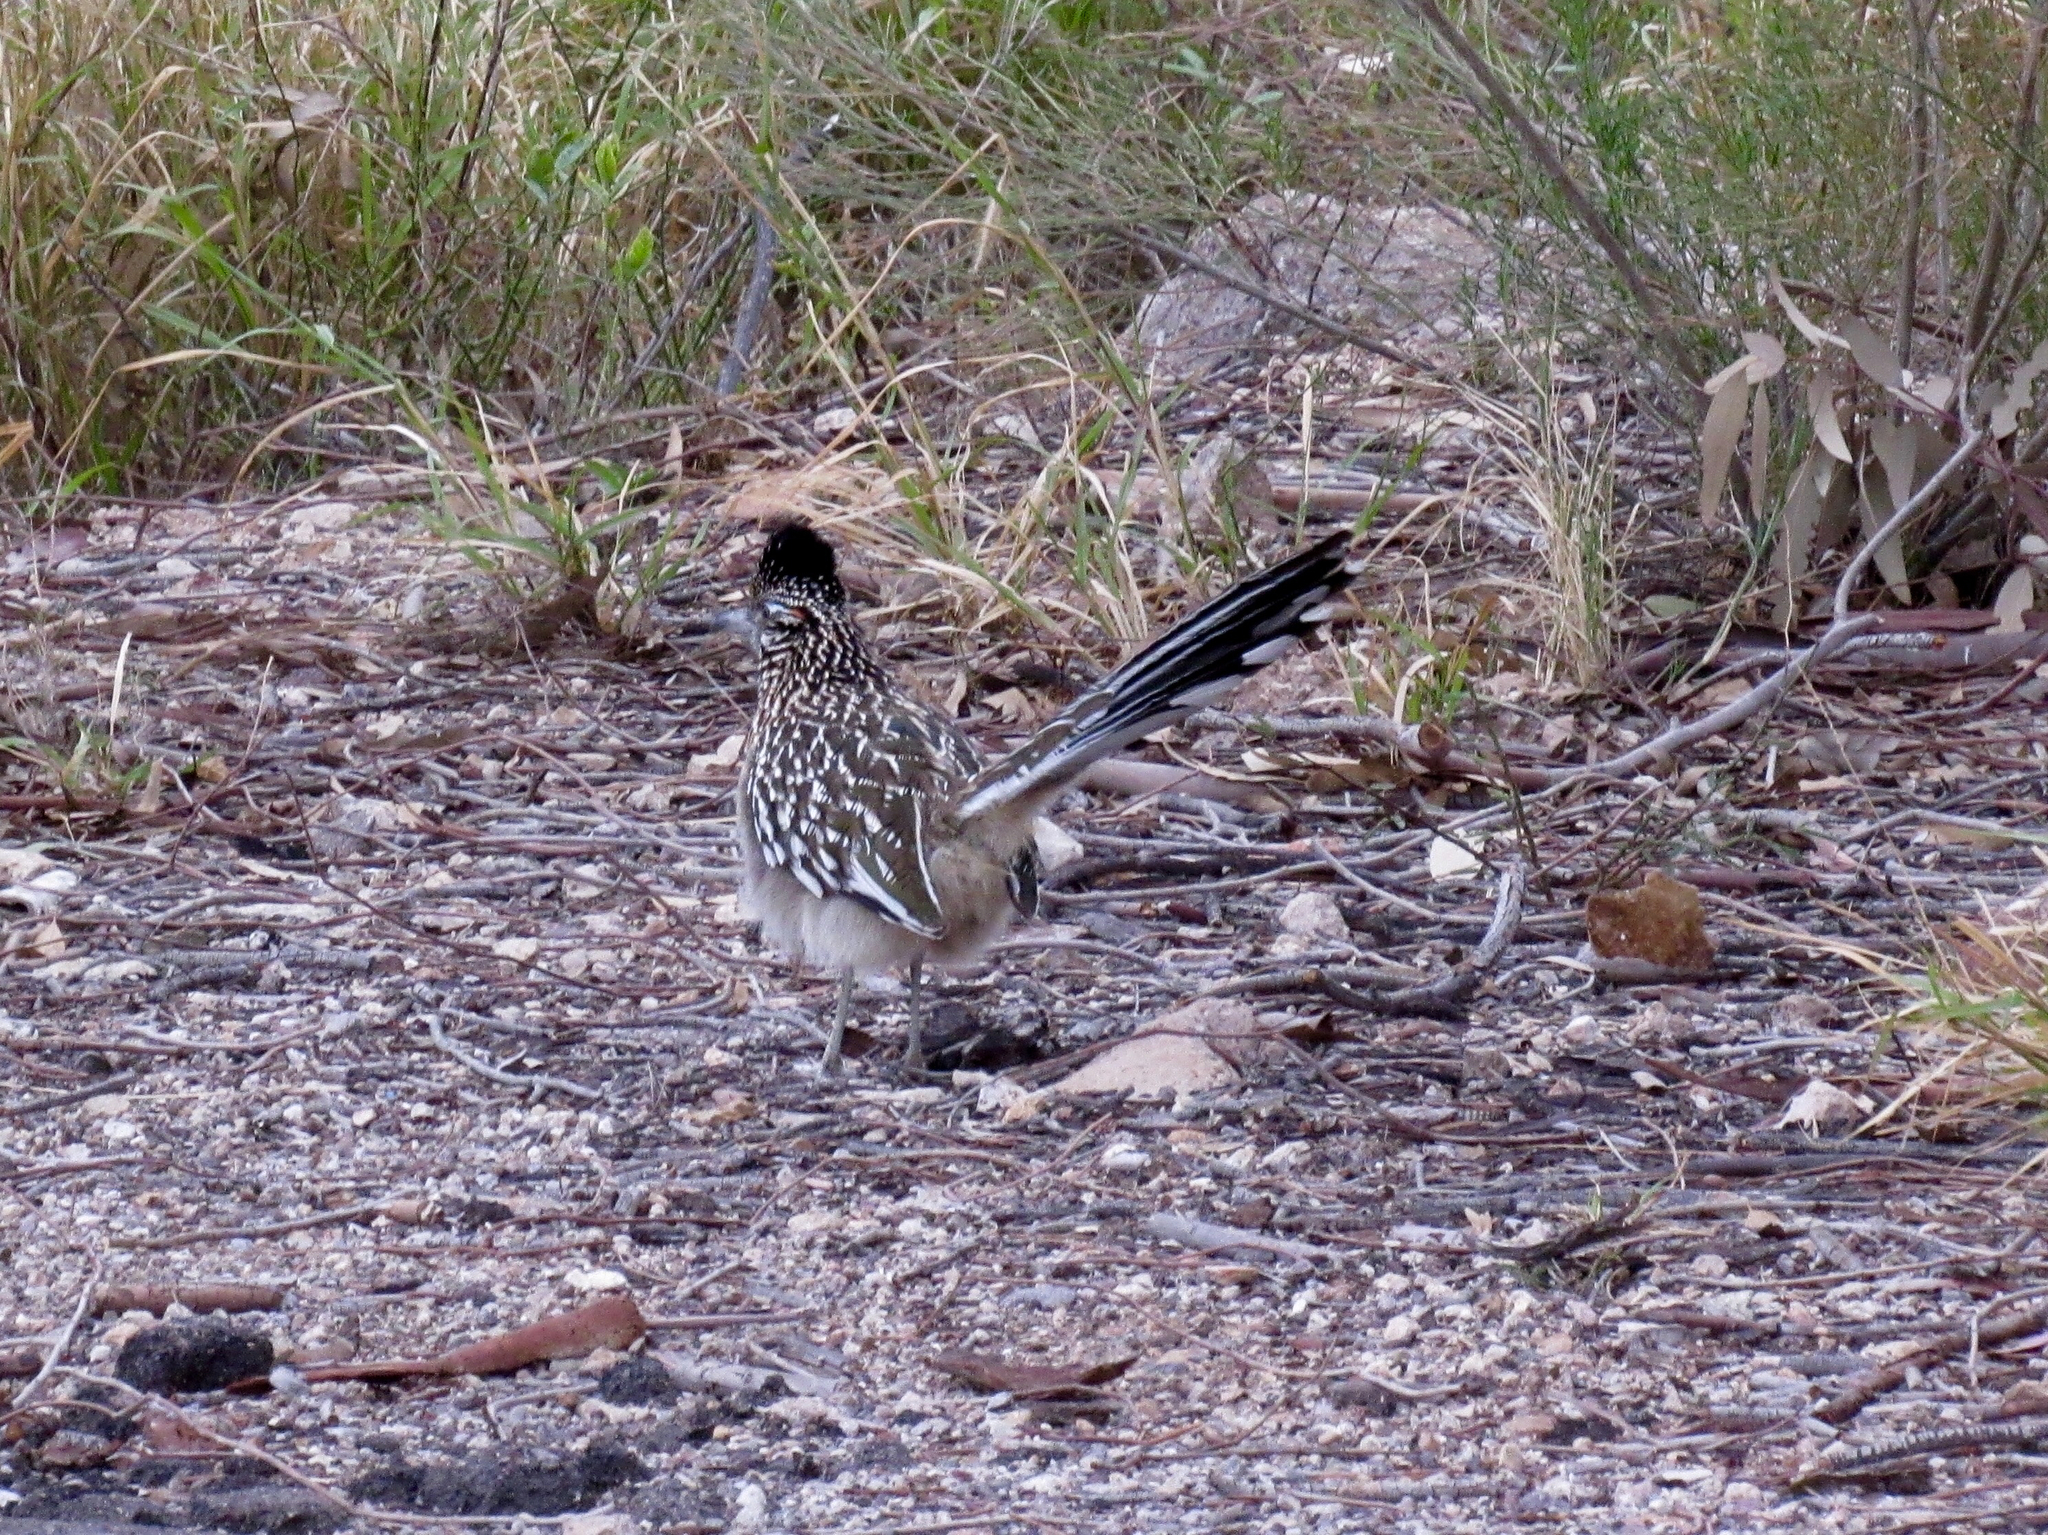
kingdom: Animalia
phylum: Chordata
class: Aves
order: Cuculiformes
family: Cuculidae
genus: Geococcyx
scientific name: Geococcyx californianus
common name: Greater roadrunner
